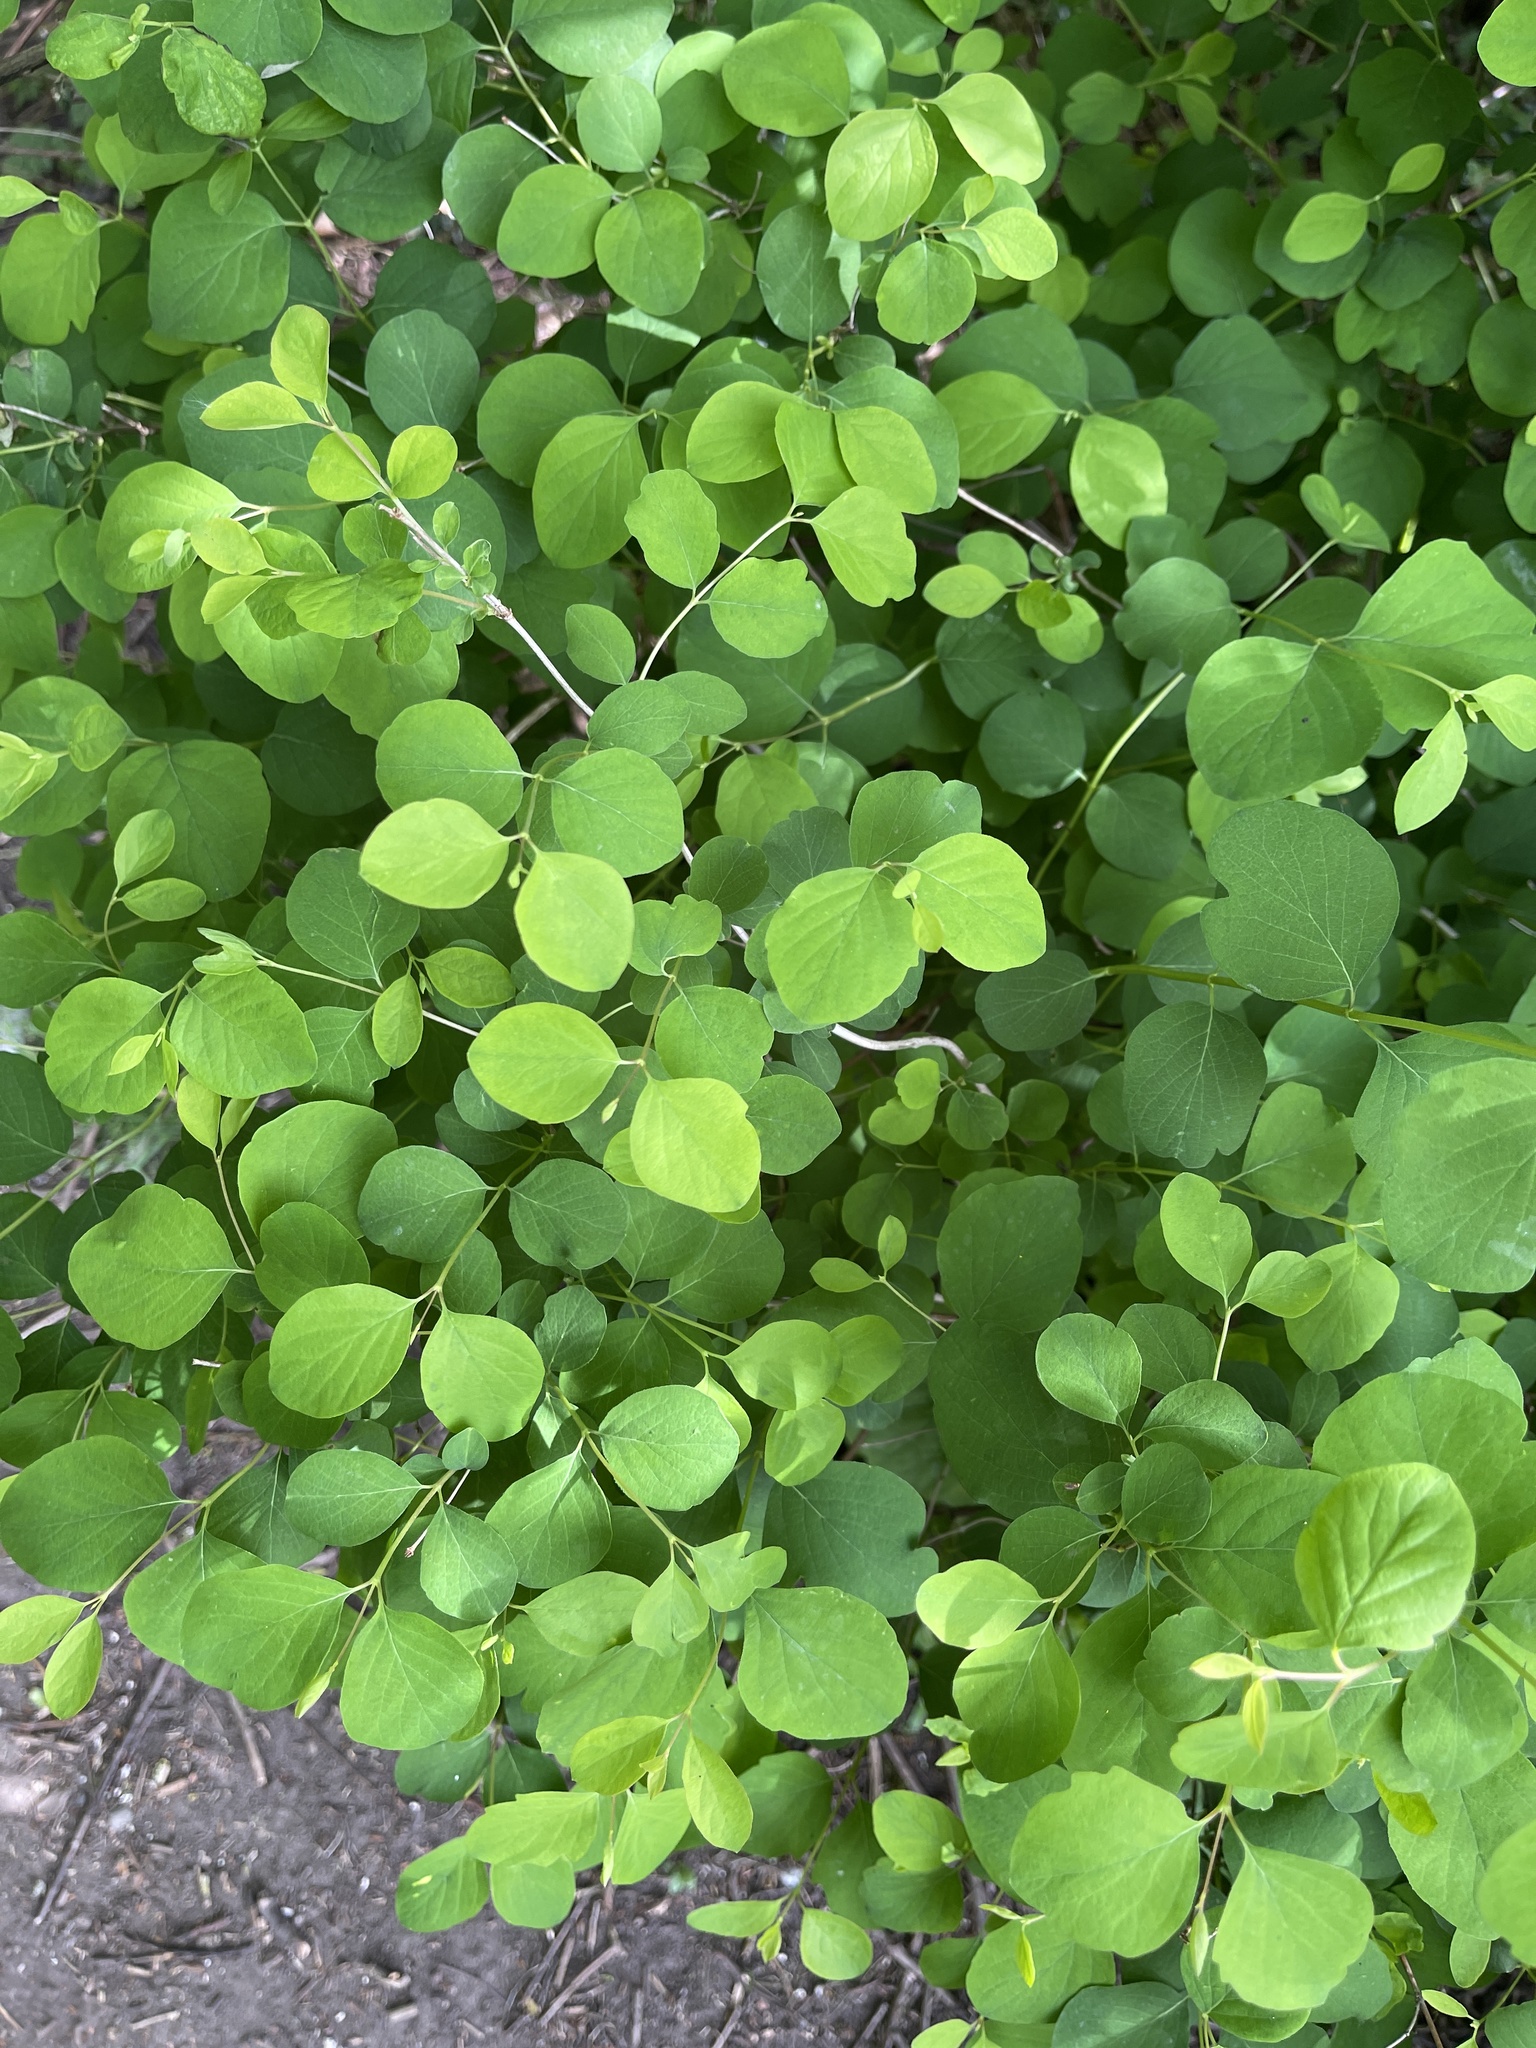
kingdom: Plantae
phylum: Tracheophyta
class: Magnoliopsida
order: Dipsacales
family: Caprifoliaceae
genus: Symphoricarpos
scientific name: Symphoricarpos albus
